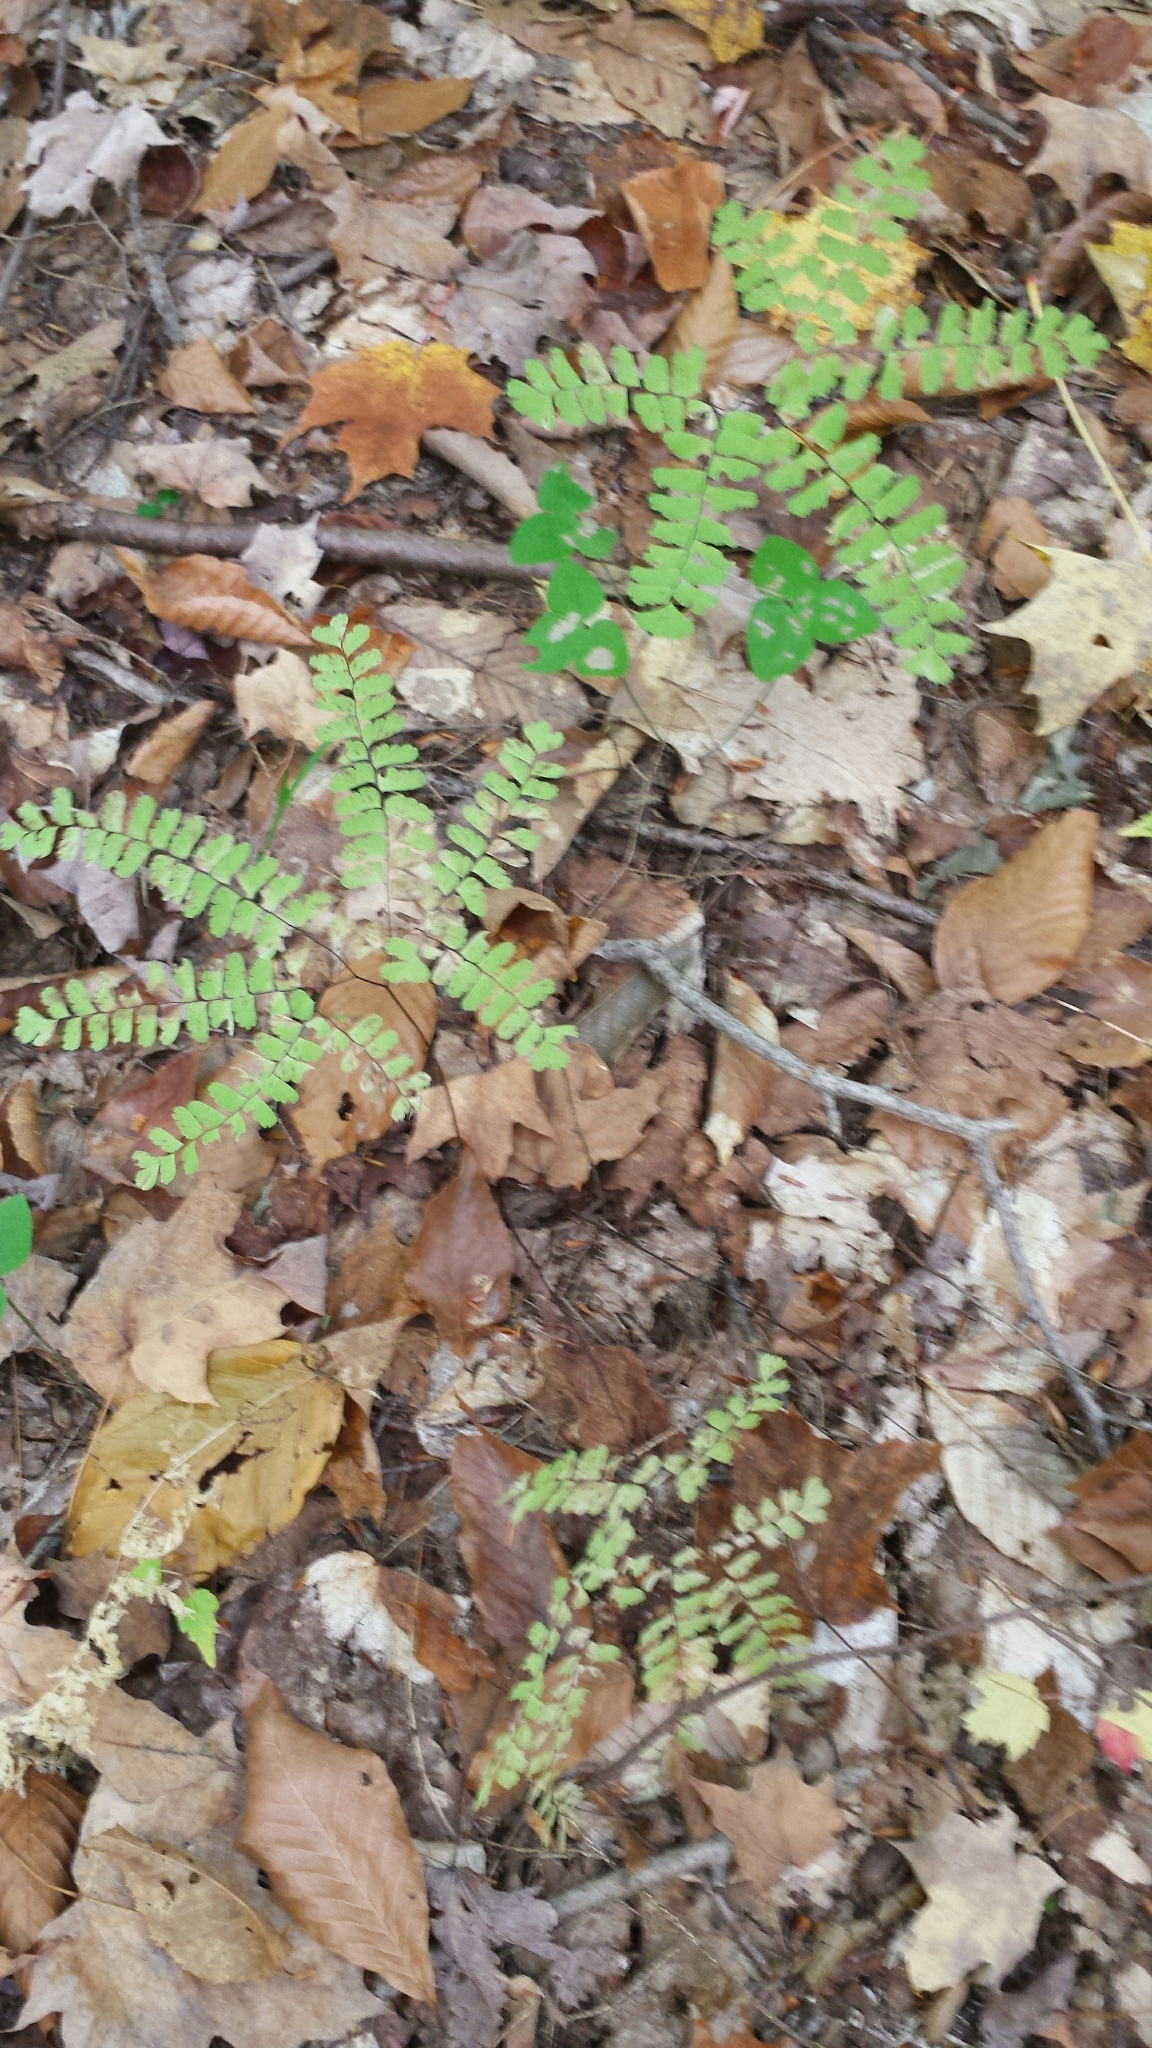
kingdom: Plantae
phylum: Tracheophyta
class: Polypodiopsida
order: Polypodiales
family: Pteridaceae
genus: Adiantum
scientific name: Adiantum pedatum
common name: Five-finger fern
